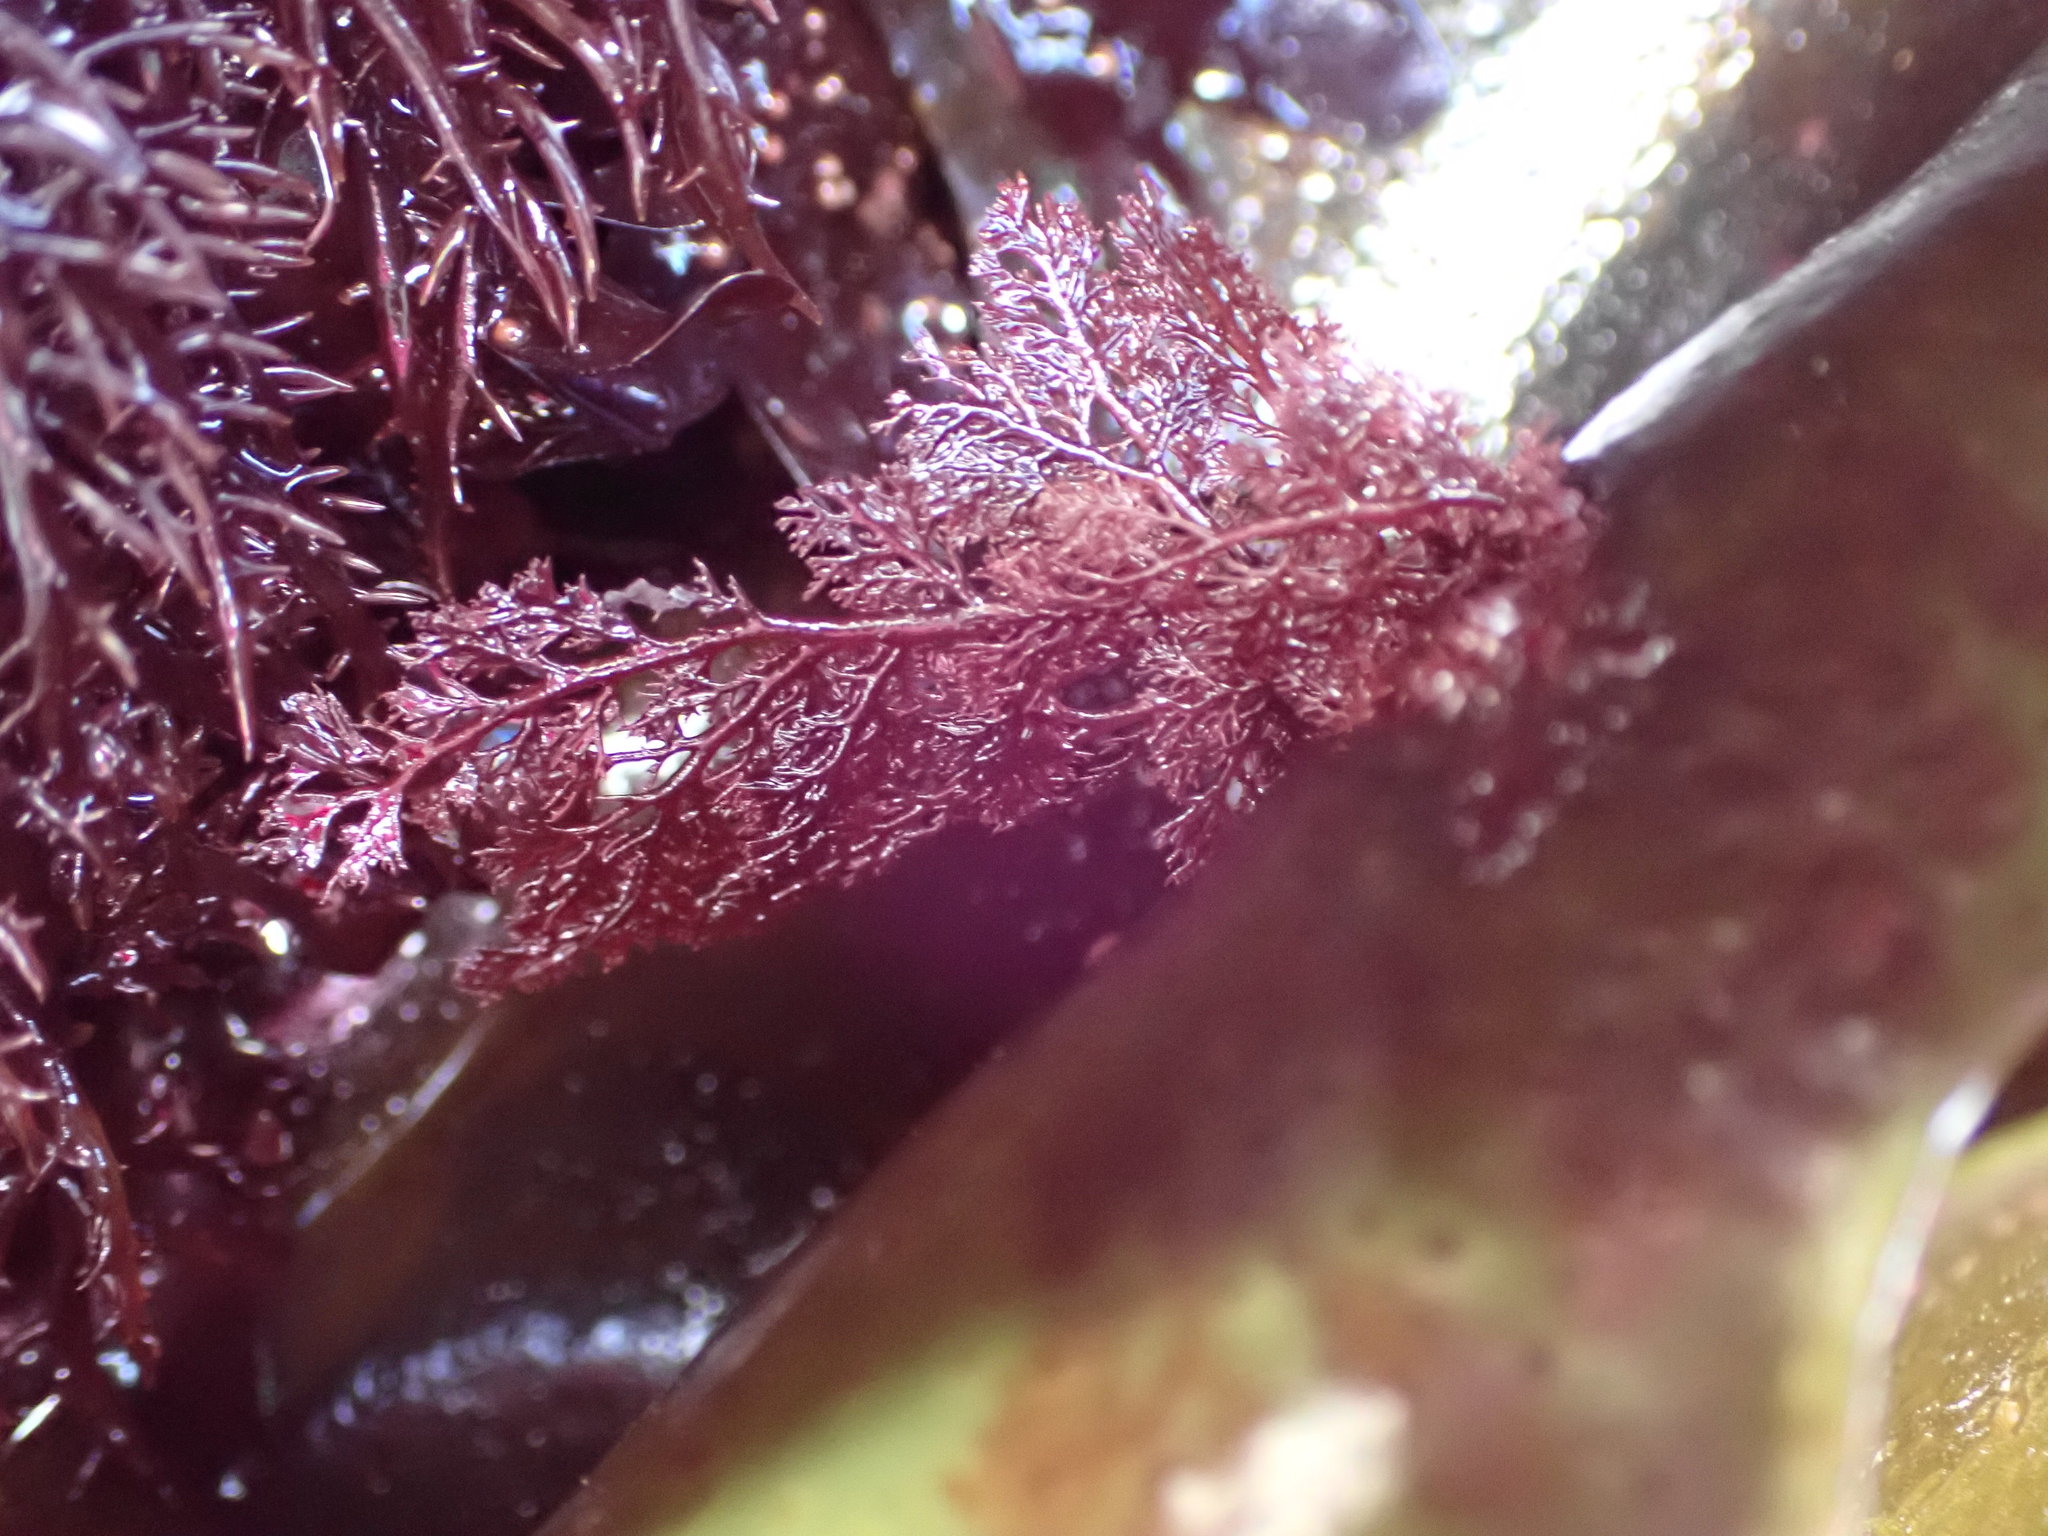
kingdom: Plantae
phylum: Rhodophyta
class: Florideophyceae
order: Ceramiales
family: Ceramiaceae
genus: Microcladia
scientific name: Microcladia coulteri
